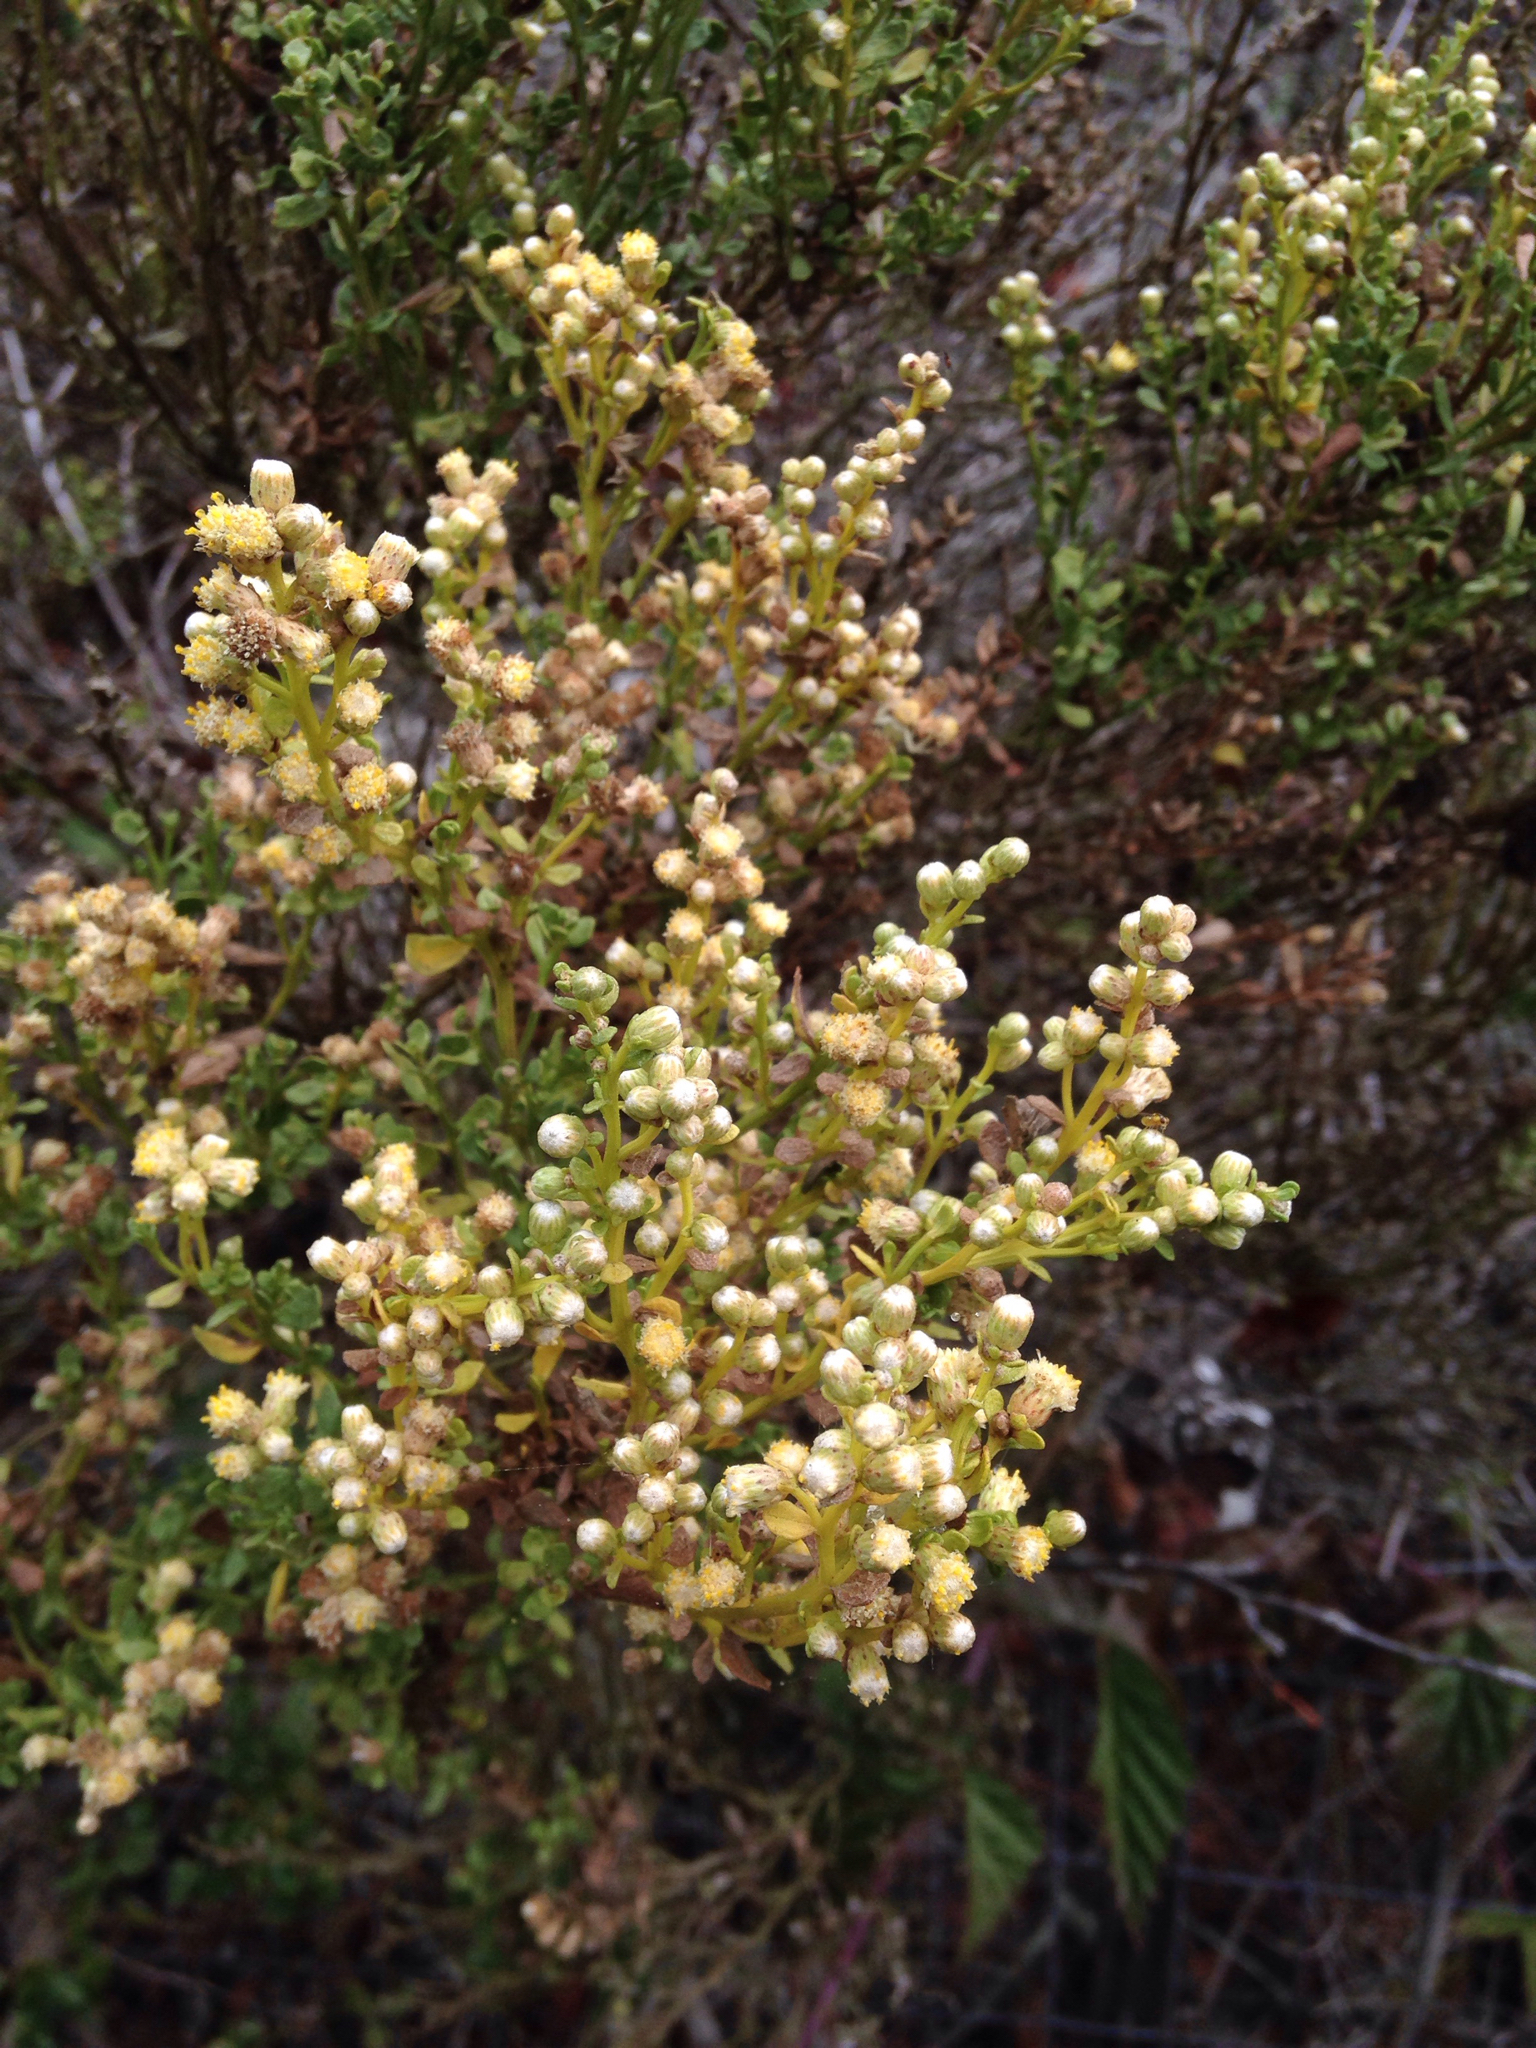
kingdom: Plantae
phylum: Tracheophyta
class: Magnoliopsida
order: Asterales
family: Asteraceae
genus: Baccharis
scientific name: Baccharis pilularis
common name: Coyotebrush
